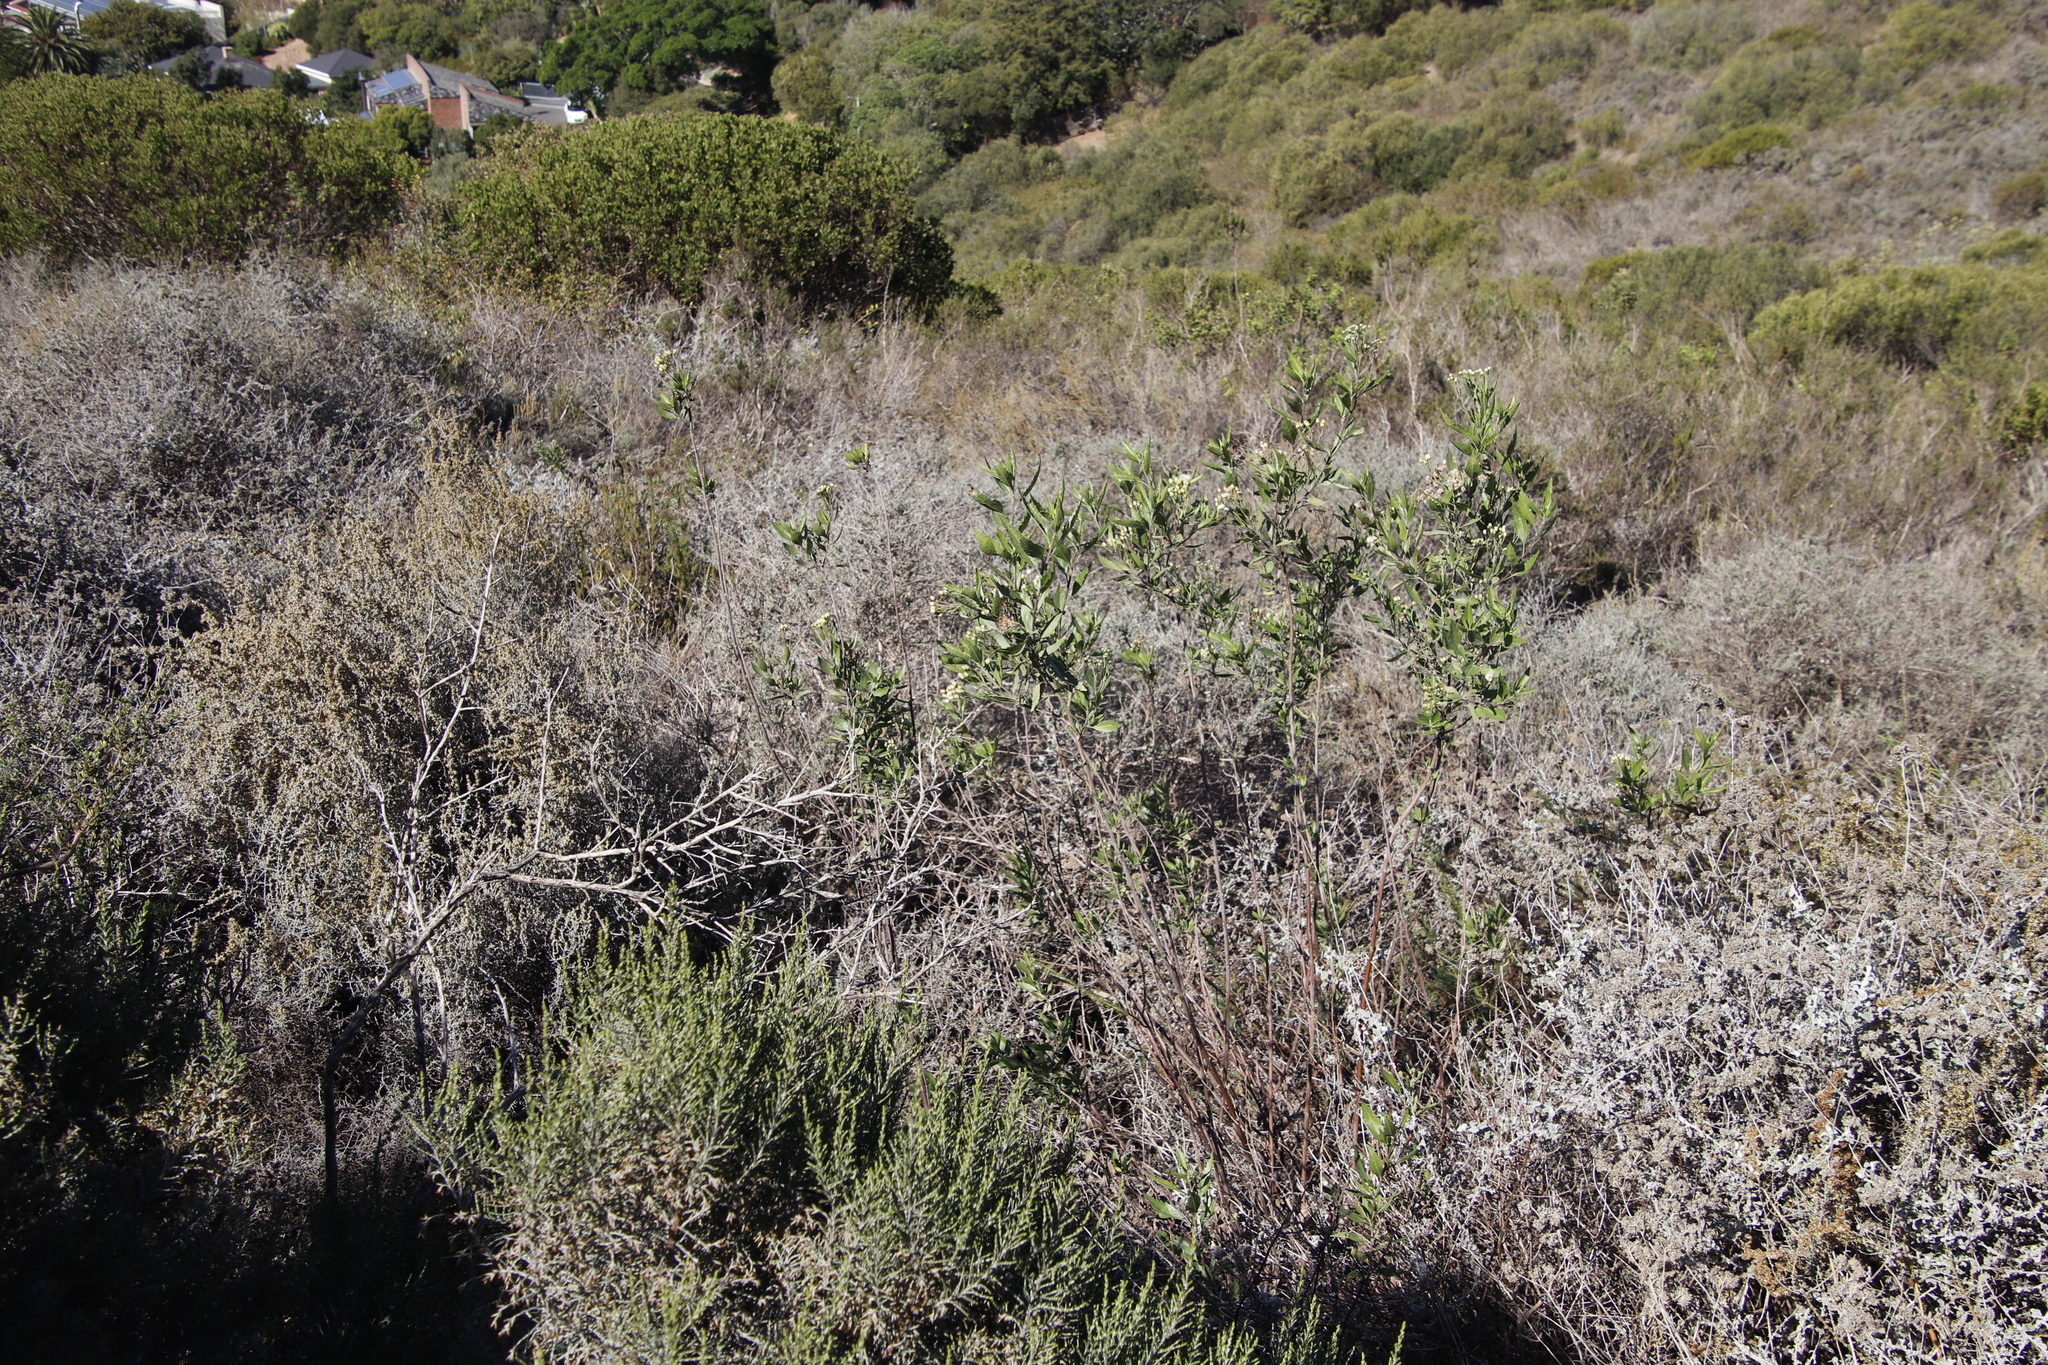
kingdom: Plantae
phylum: Tracheophyta
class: Magnoliopsida
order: Asterales
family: Asteraceae
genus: Nidorella
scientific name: Nidorella ivifolia
